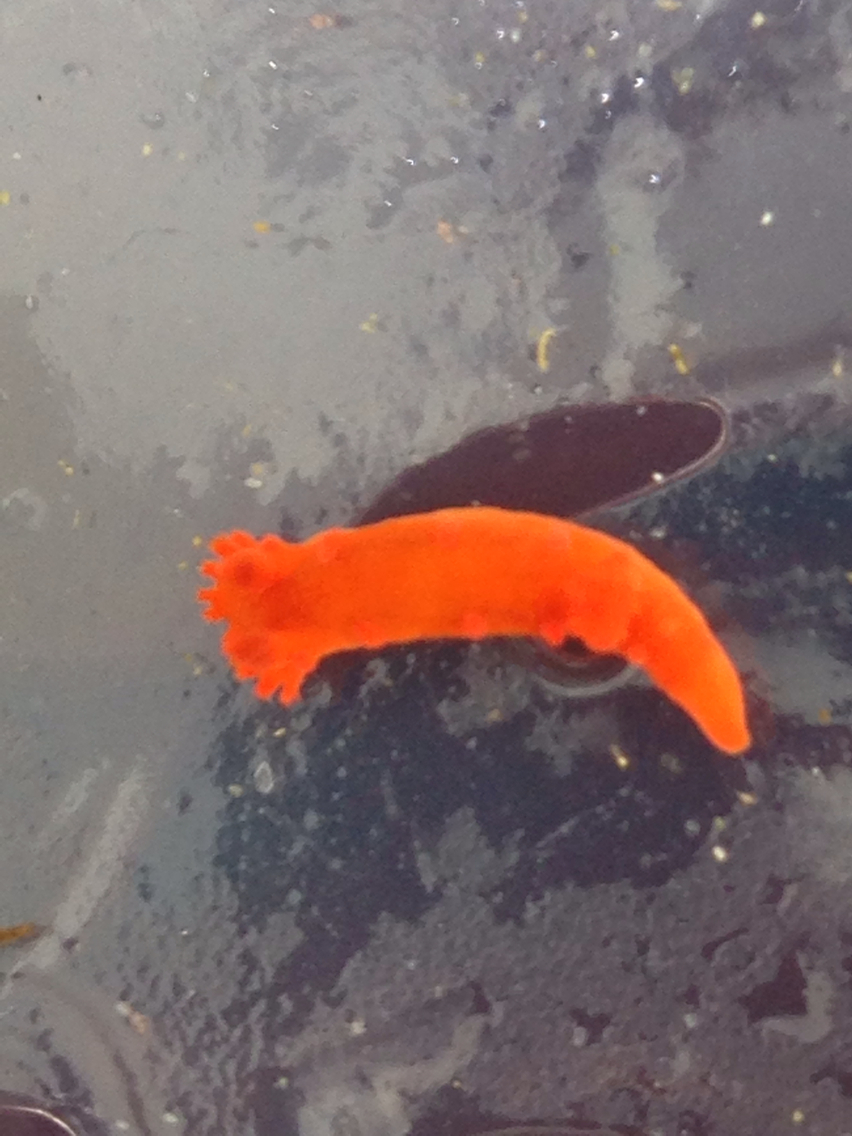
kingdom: Animalia
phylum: Mollusca
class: Gastropoda
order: Nudibranchia
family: Polyceridae
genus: Triopha
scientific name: Triopha maculata
